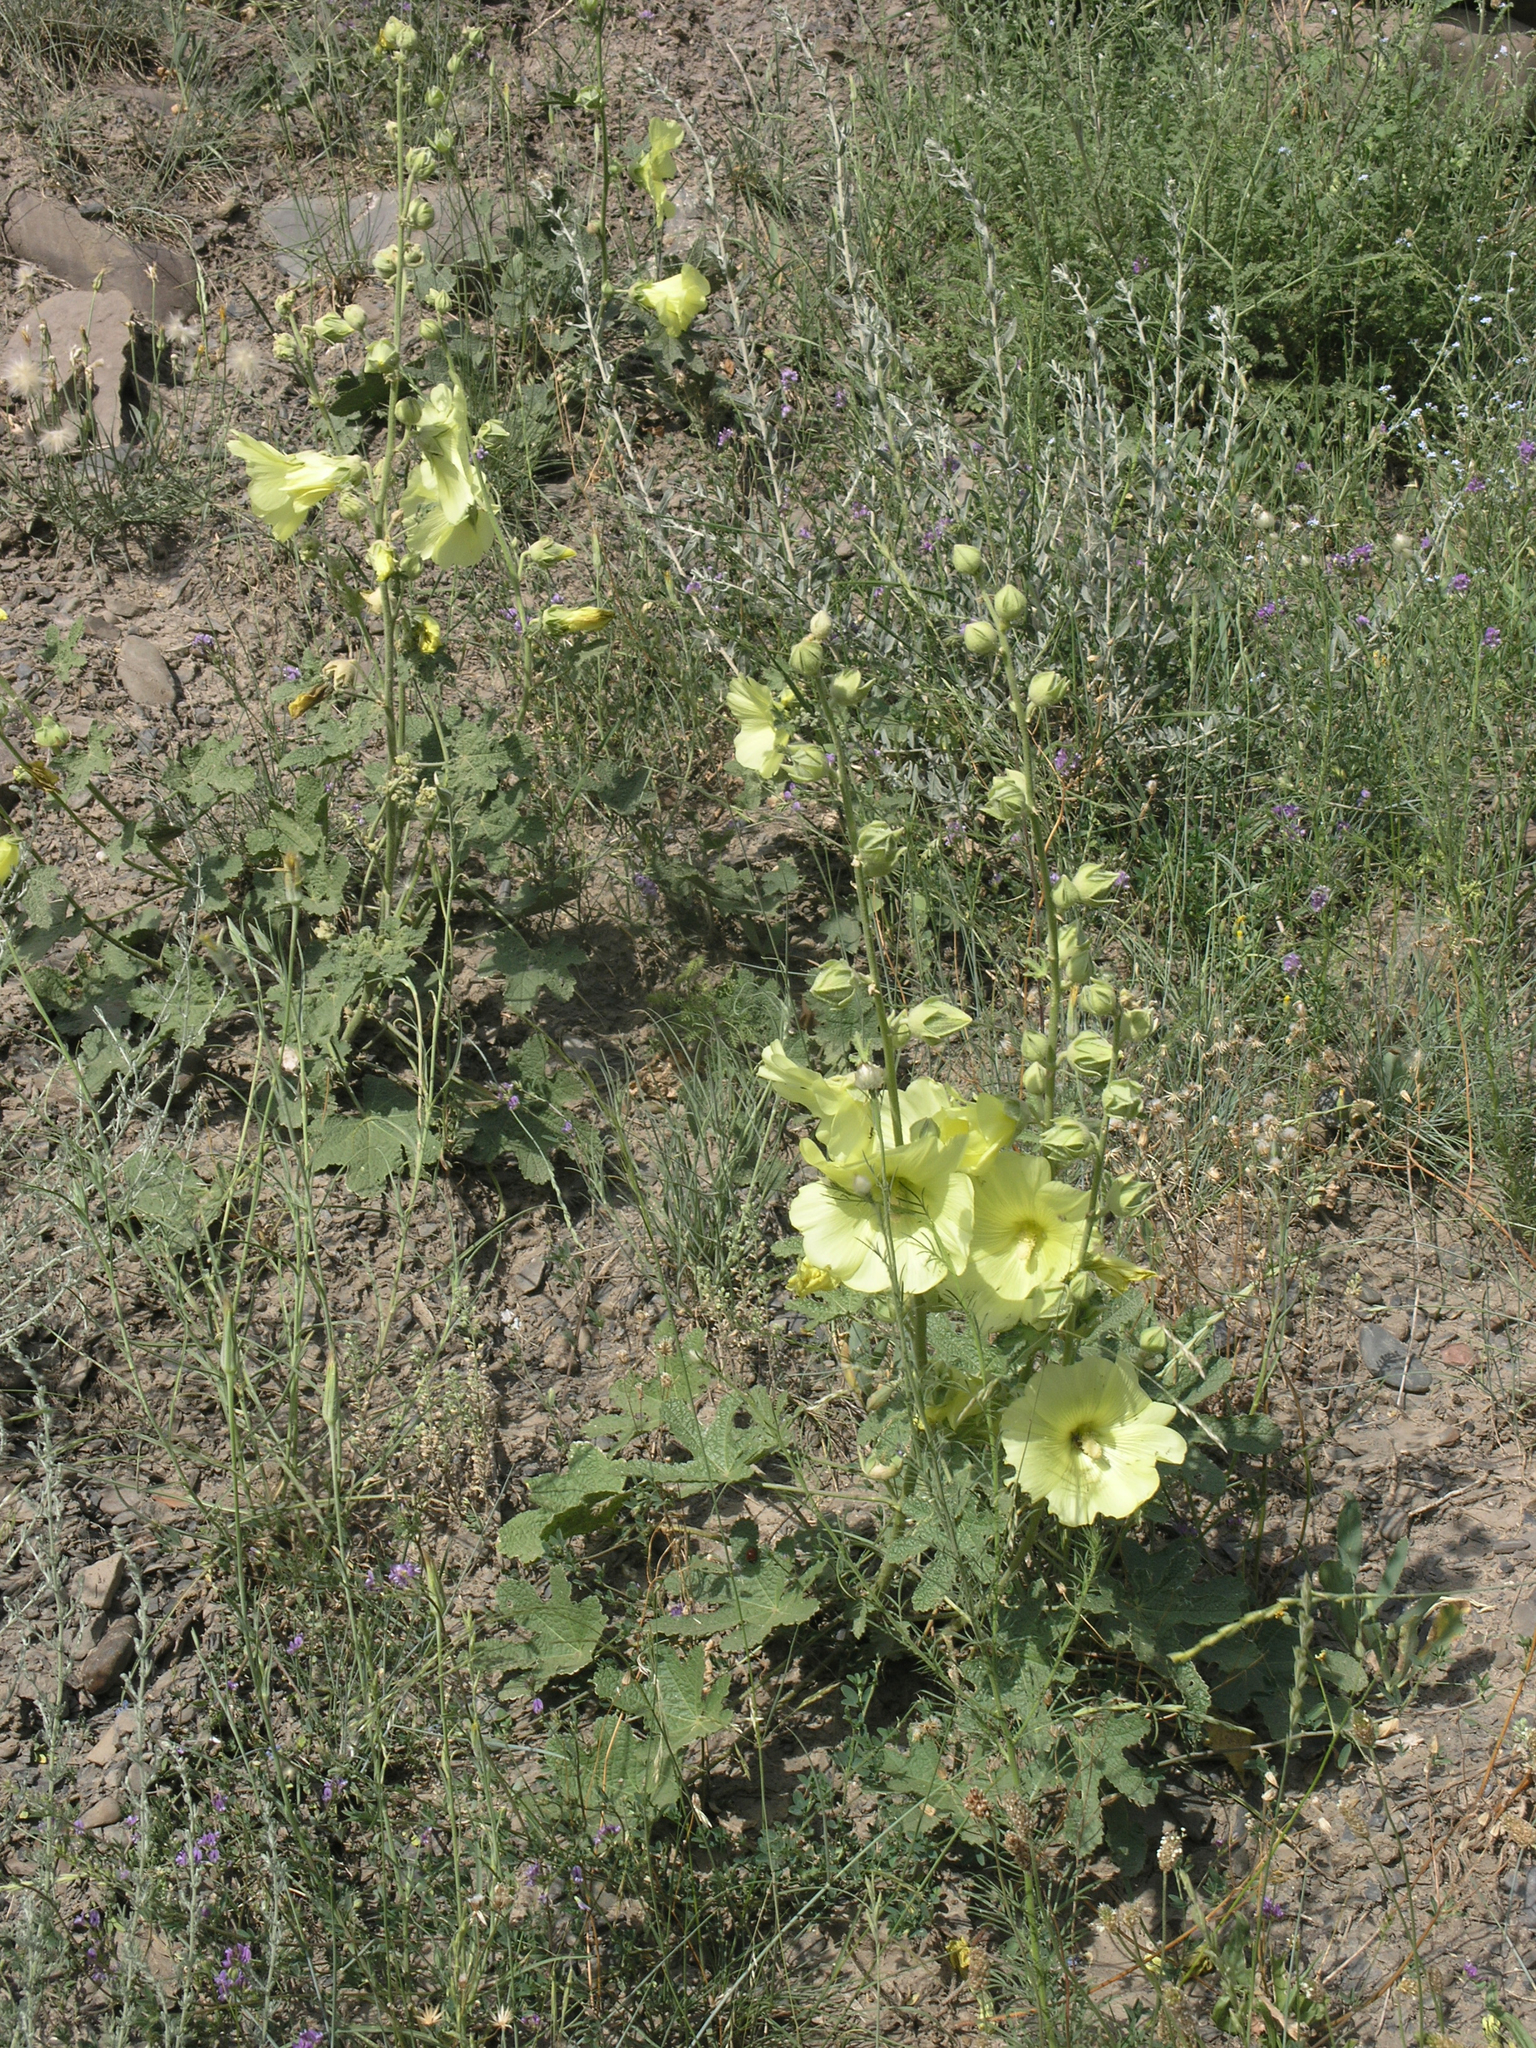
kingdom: Plantae
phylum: Tracheophyta
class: Magnoliopsida
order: Malvales
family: Malvaceae
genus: Alcea
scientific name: Alcea rugosa
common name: Russian hollyhock
